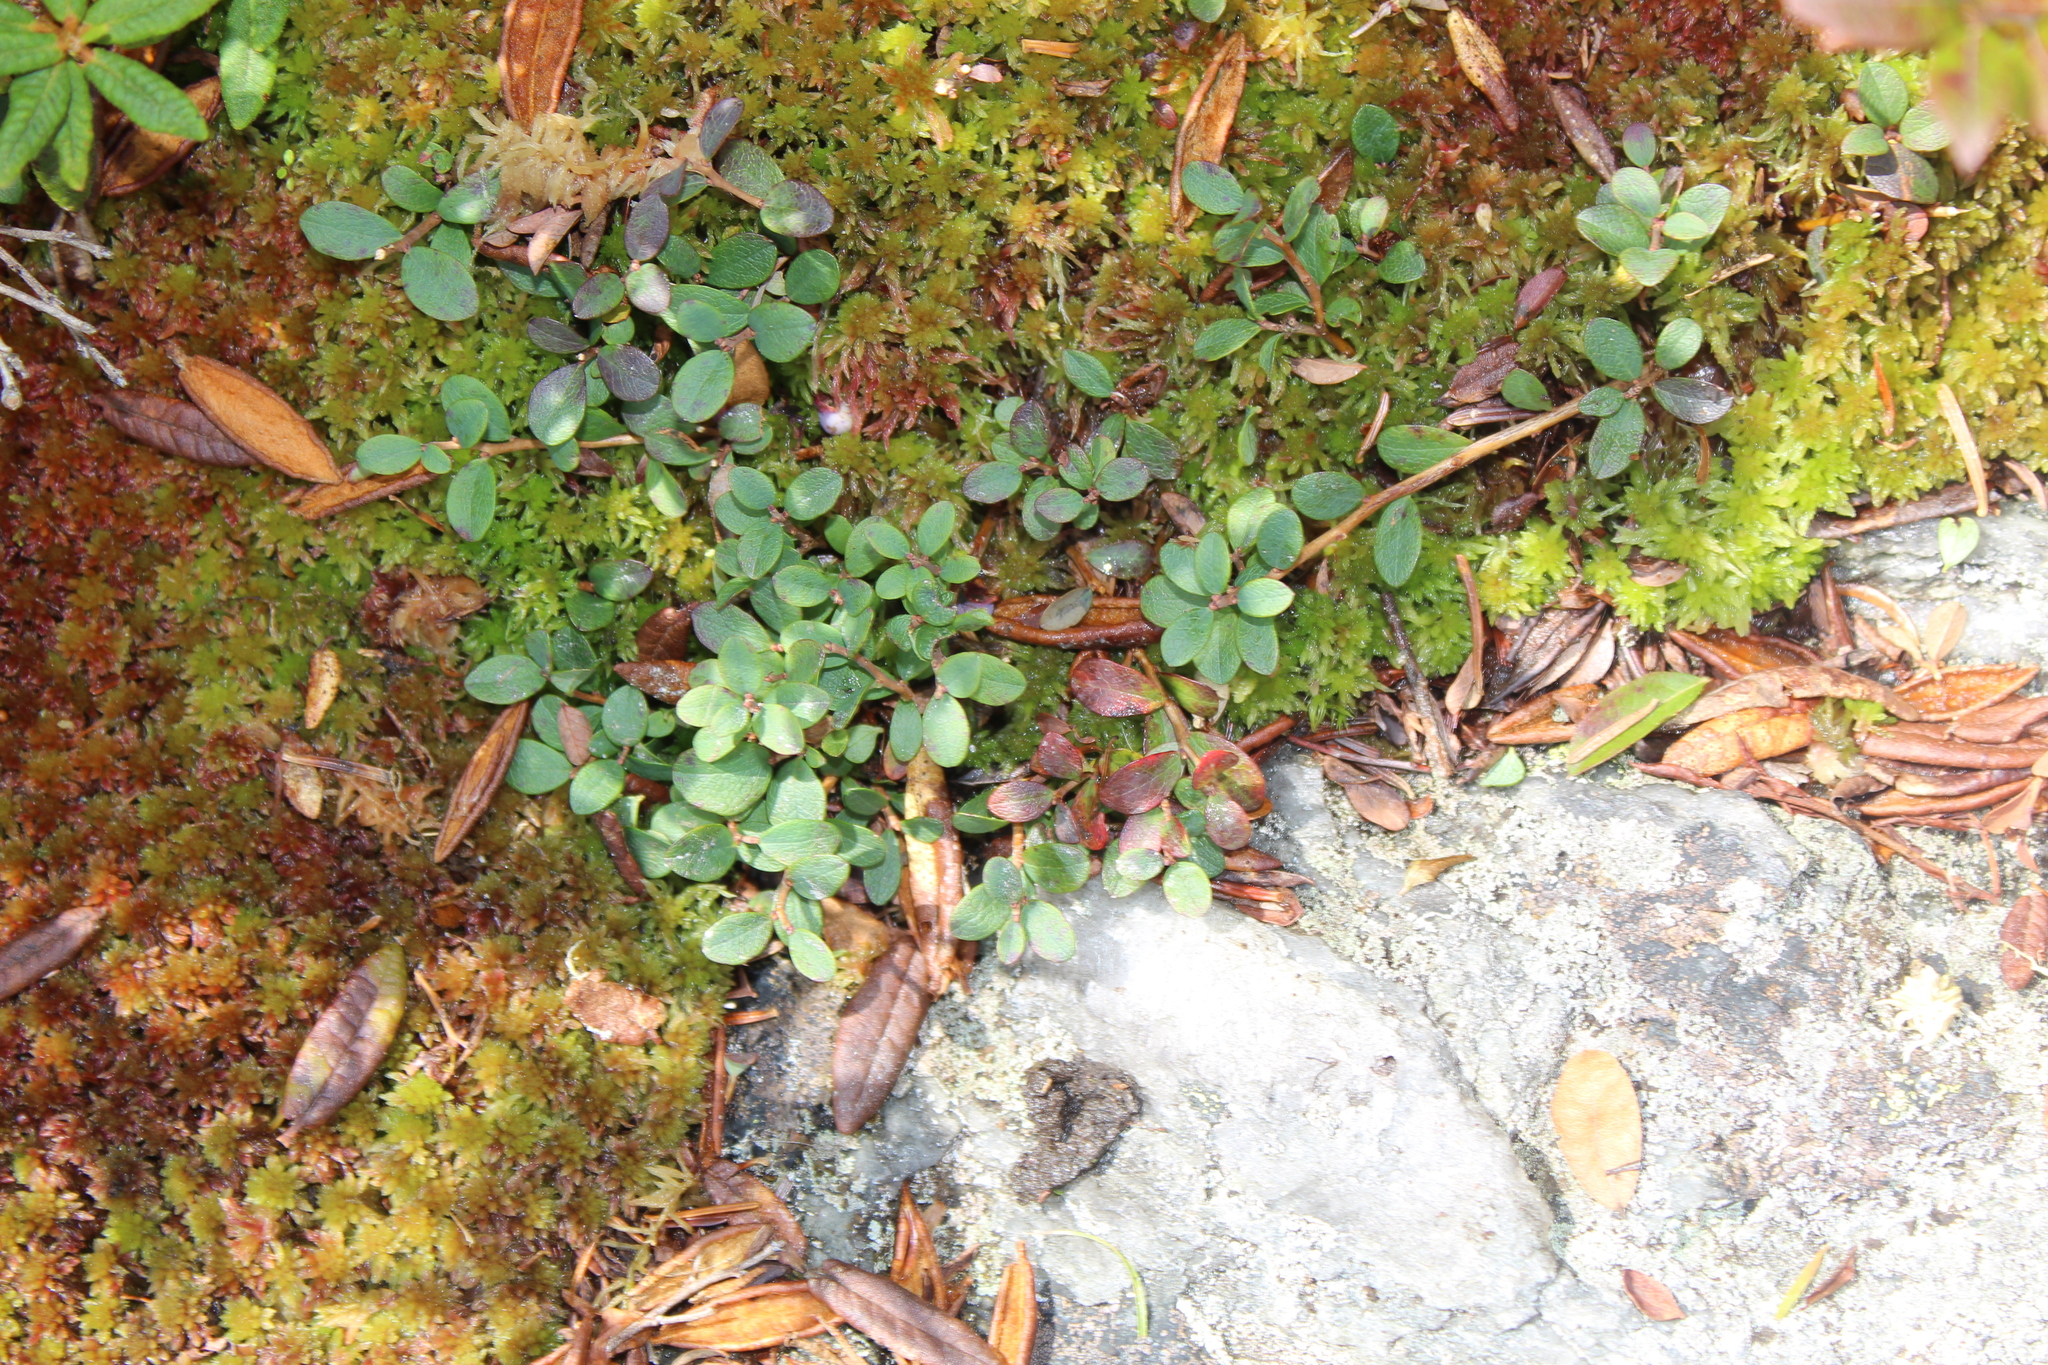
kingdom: Plantae
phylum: Tracheophyta
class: Magnoliopsida
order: Ericales
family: Ericaceae
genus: Vaccinium
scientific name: Vaccinium uliginosum
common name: Bog bilberry
